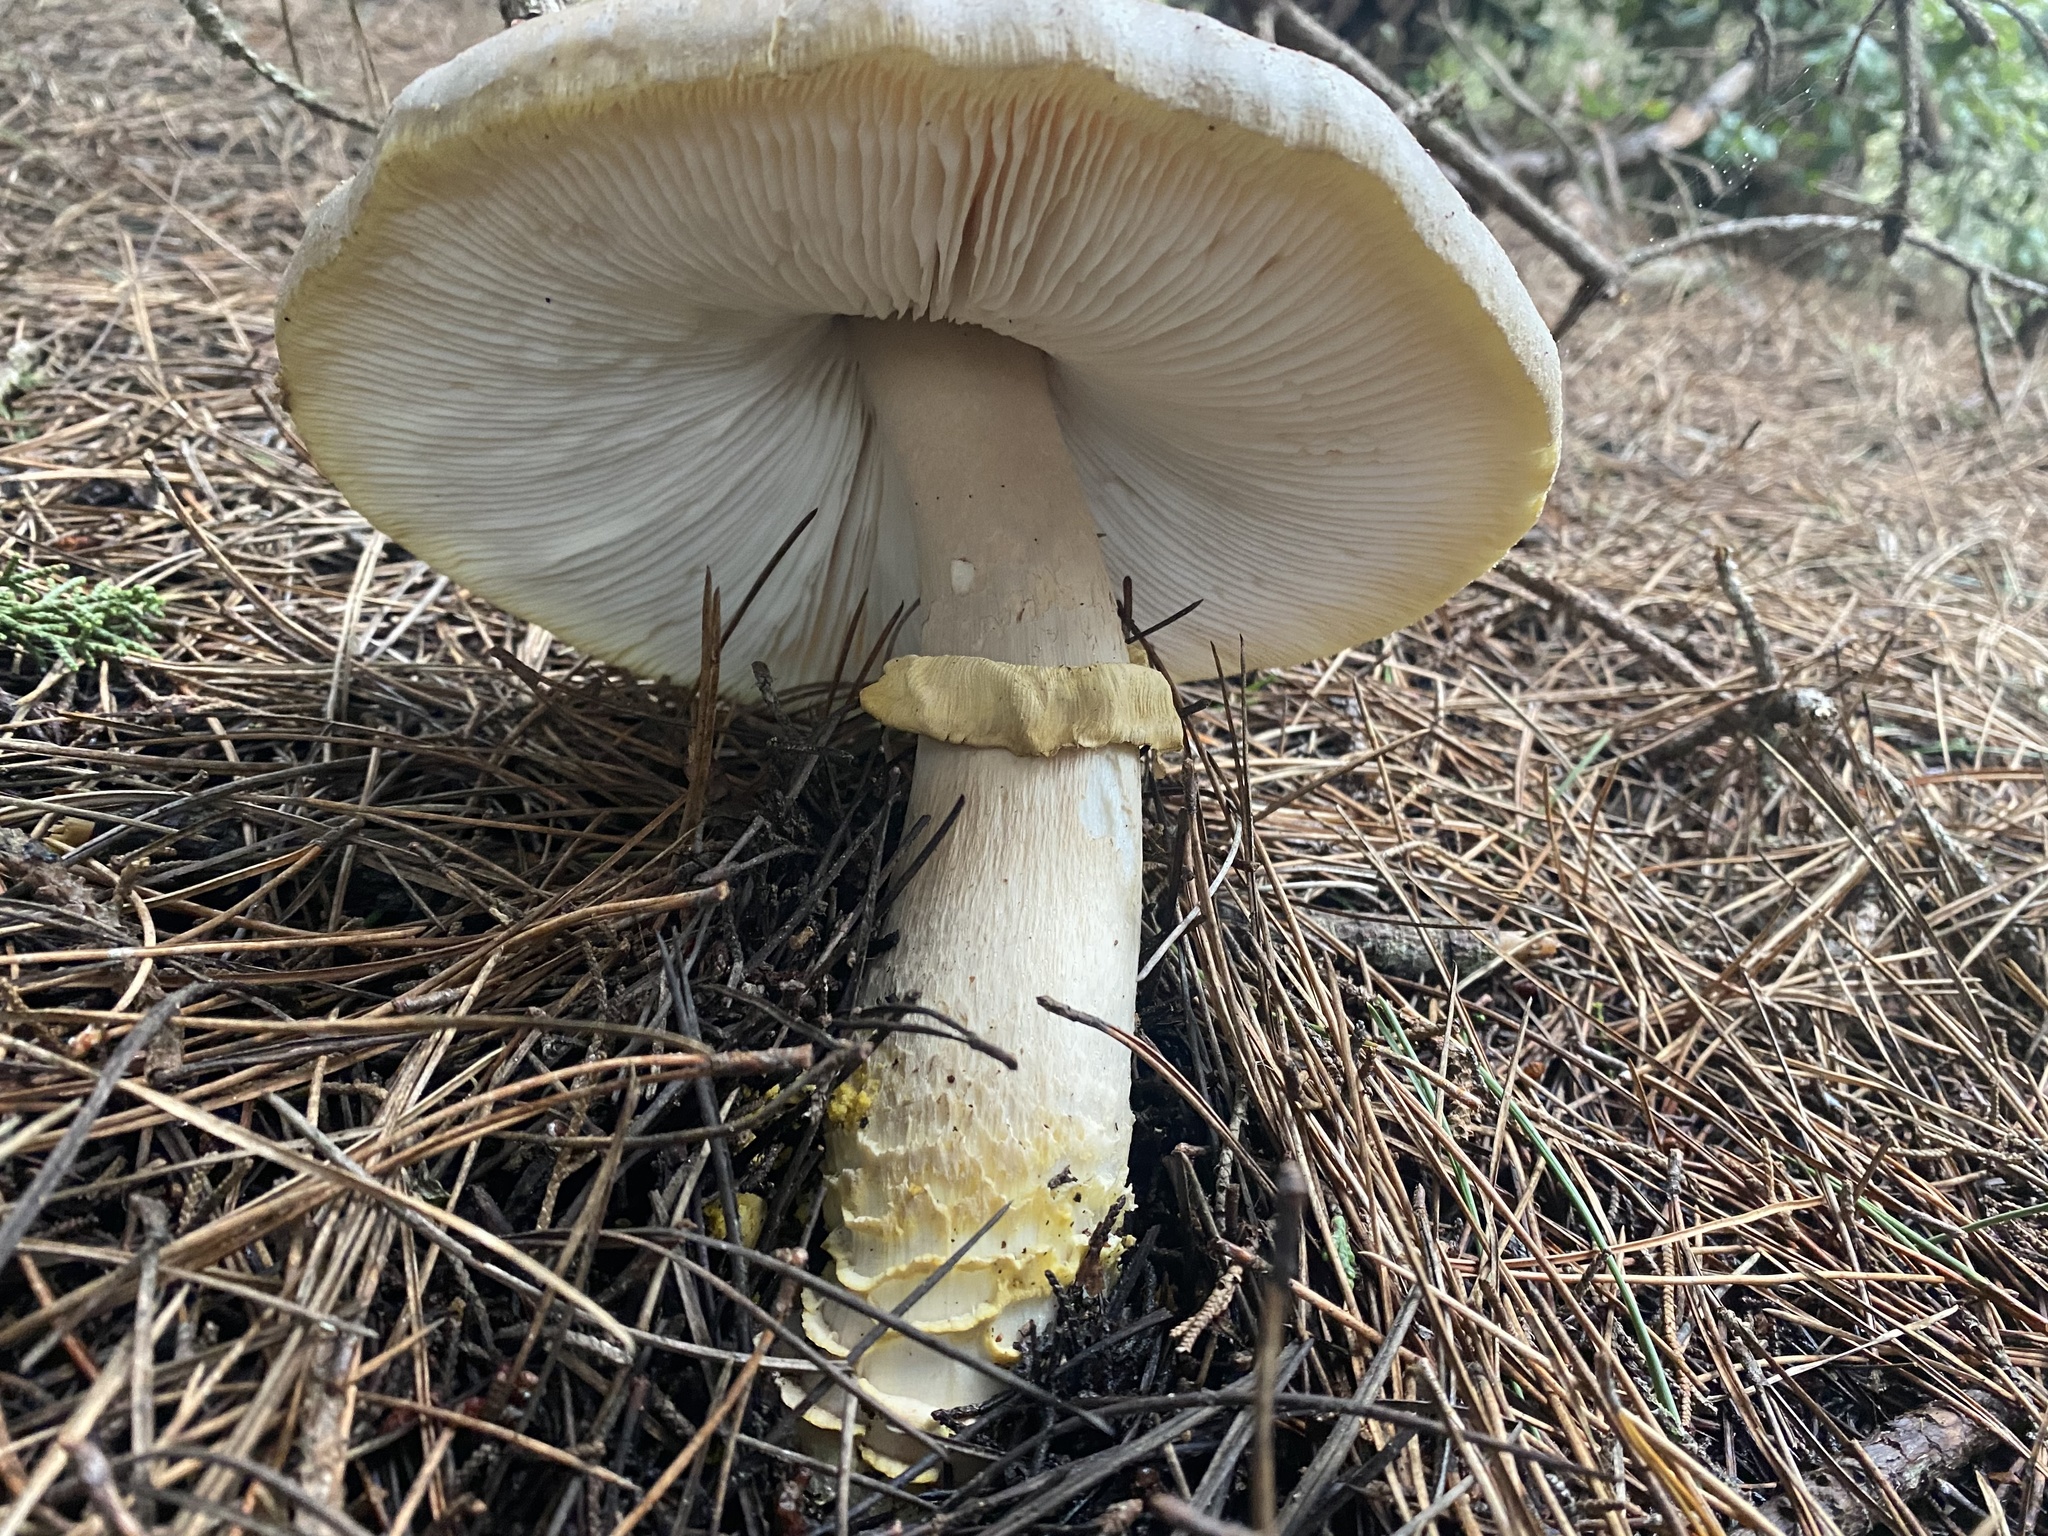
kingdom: Fungi
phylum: Basidiomycota
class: Agaricomycetes
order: Agaricales
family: Amanitaceae
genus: Amanita
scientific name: Amanita augusta
